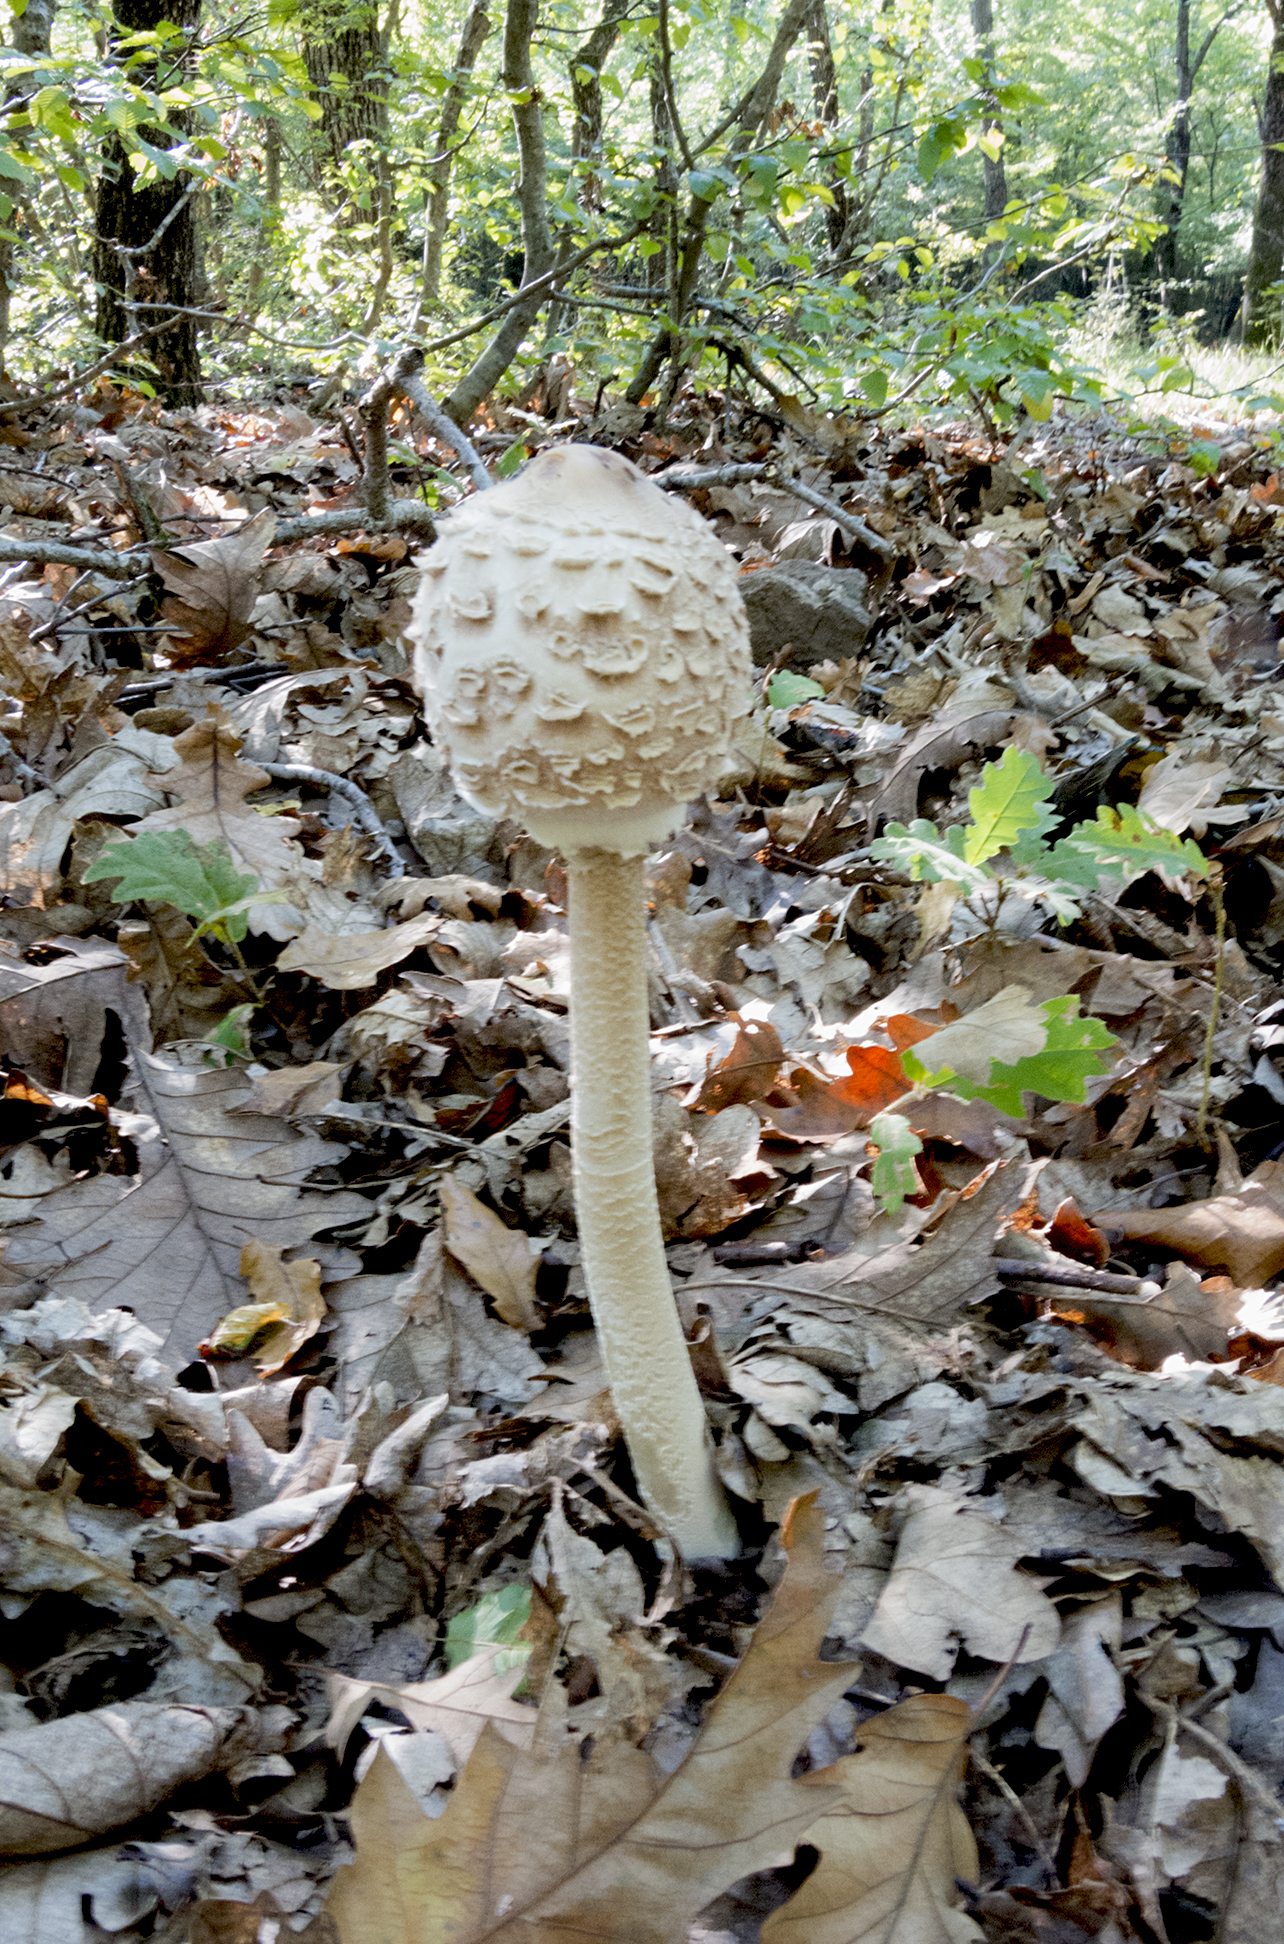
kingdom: Fungi
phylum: Basidiomycota
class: Agaricomycetes
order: Agaricales
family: Agaricaceae
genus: Macrolepiota
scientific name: Macrolepiota procera
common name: Parasol
